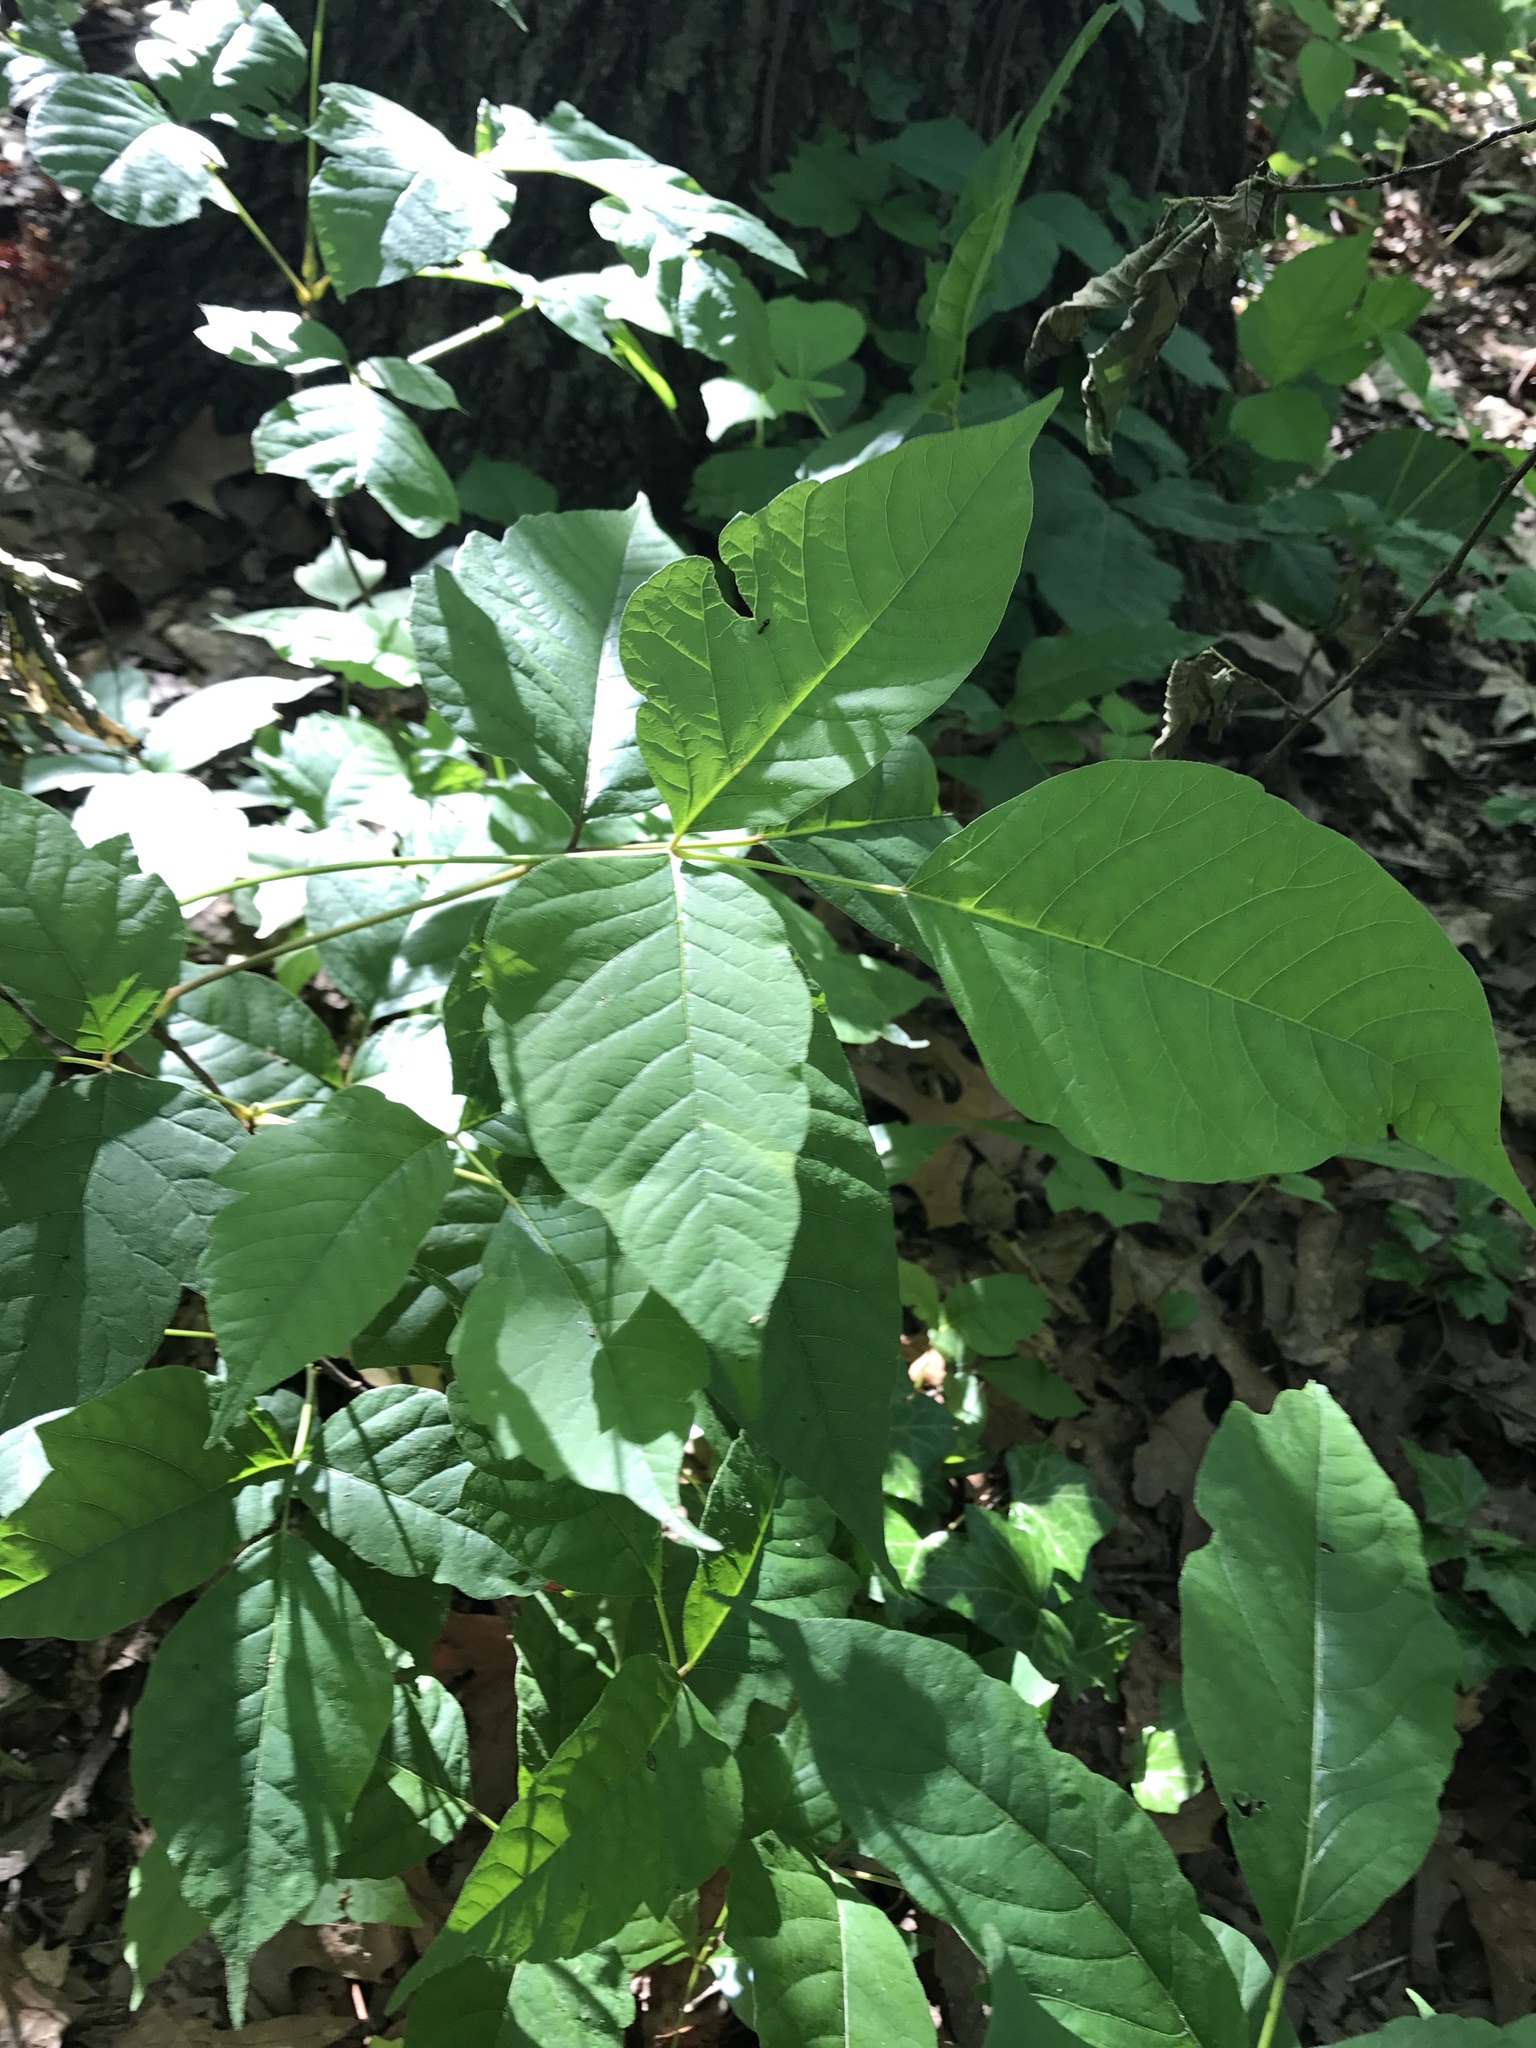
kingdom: Plantae
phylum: Tracheophyta
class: Magnoliopsida
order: Sapindales
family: Anacardiaceae
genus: Toxicodendron
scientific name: Toxicodendron radicans
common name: Poison ivy
